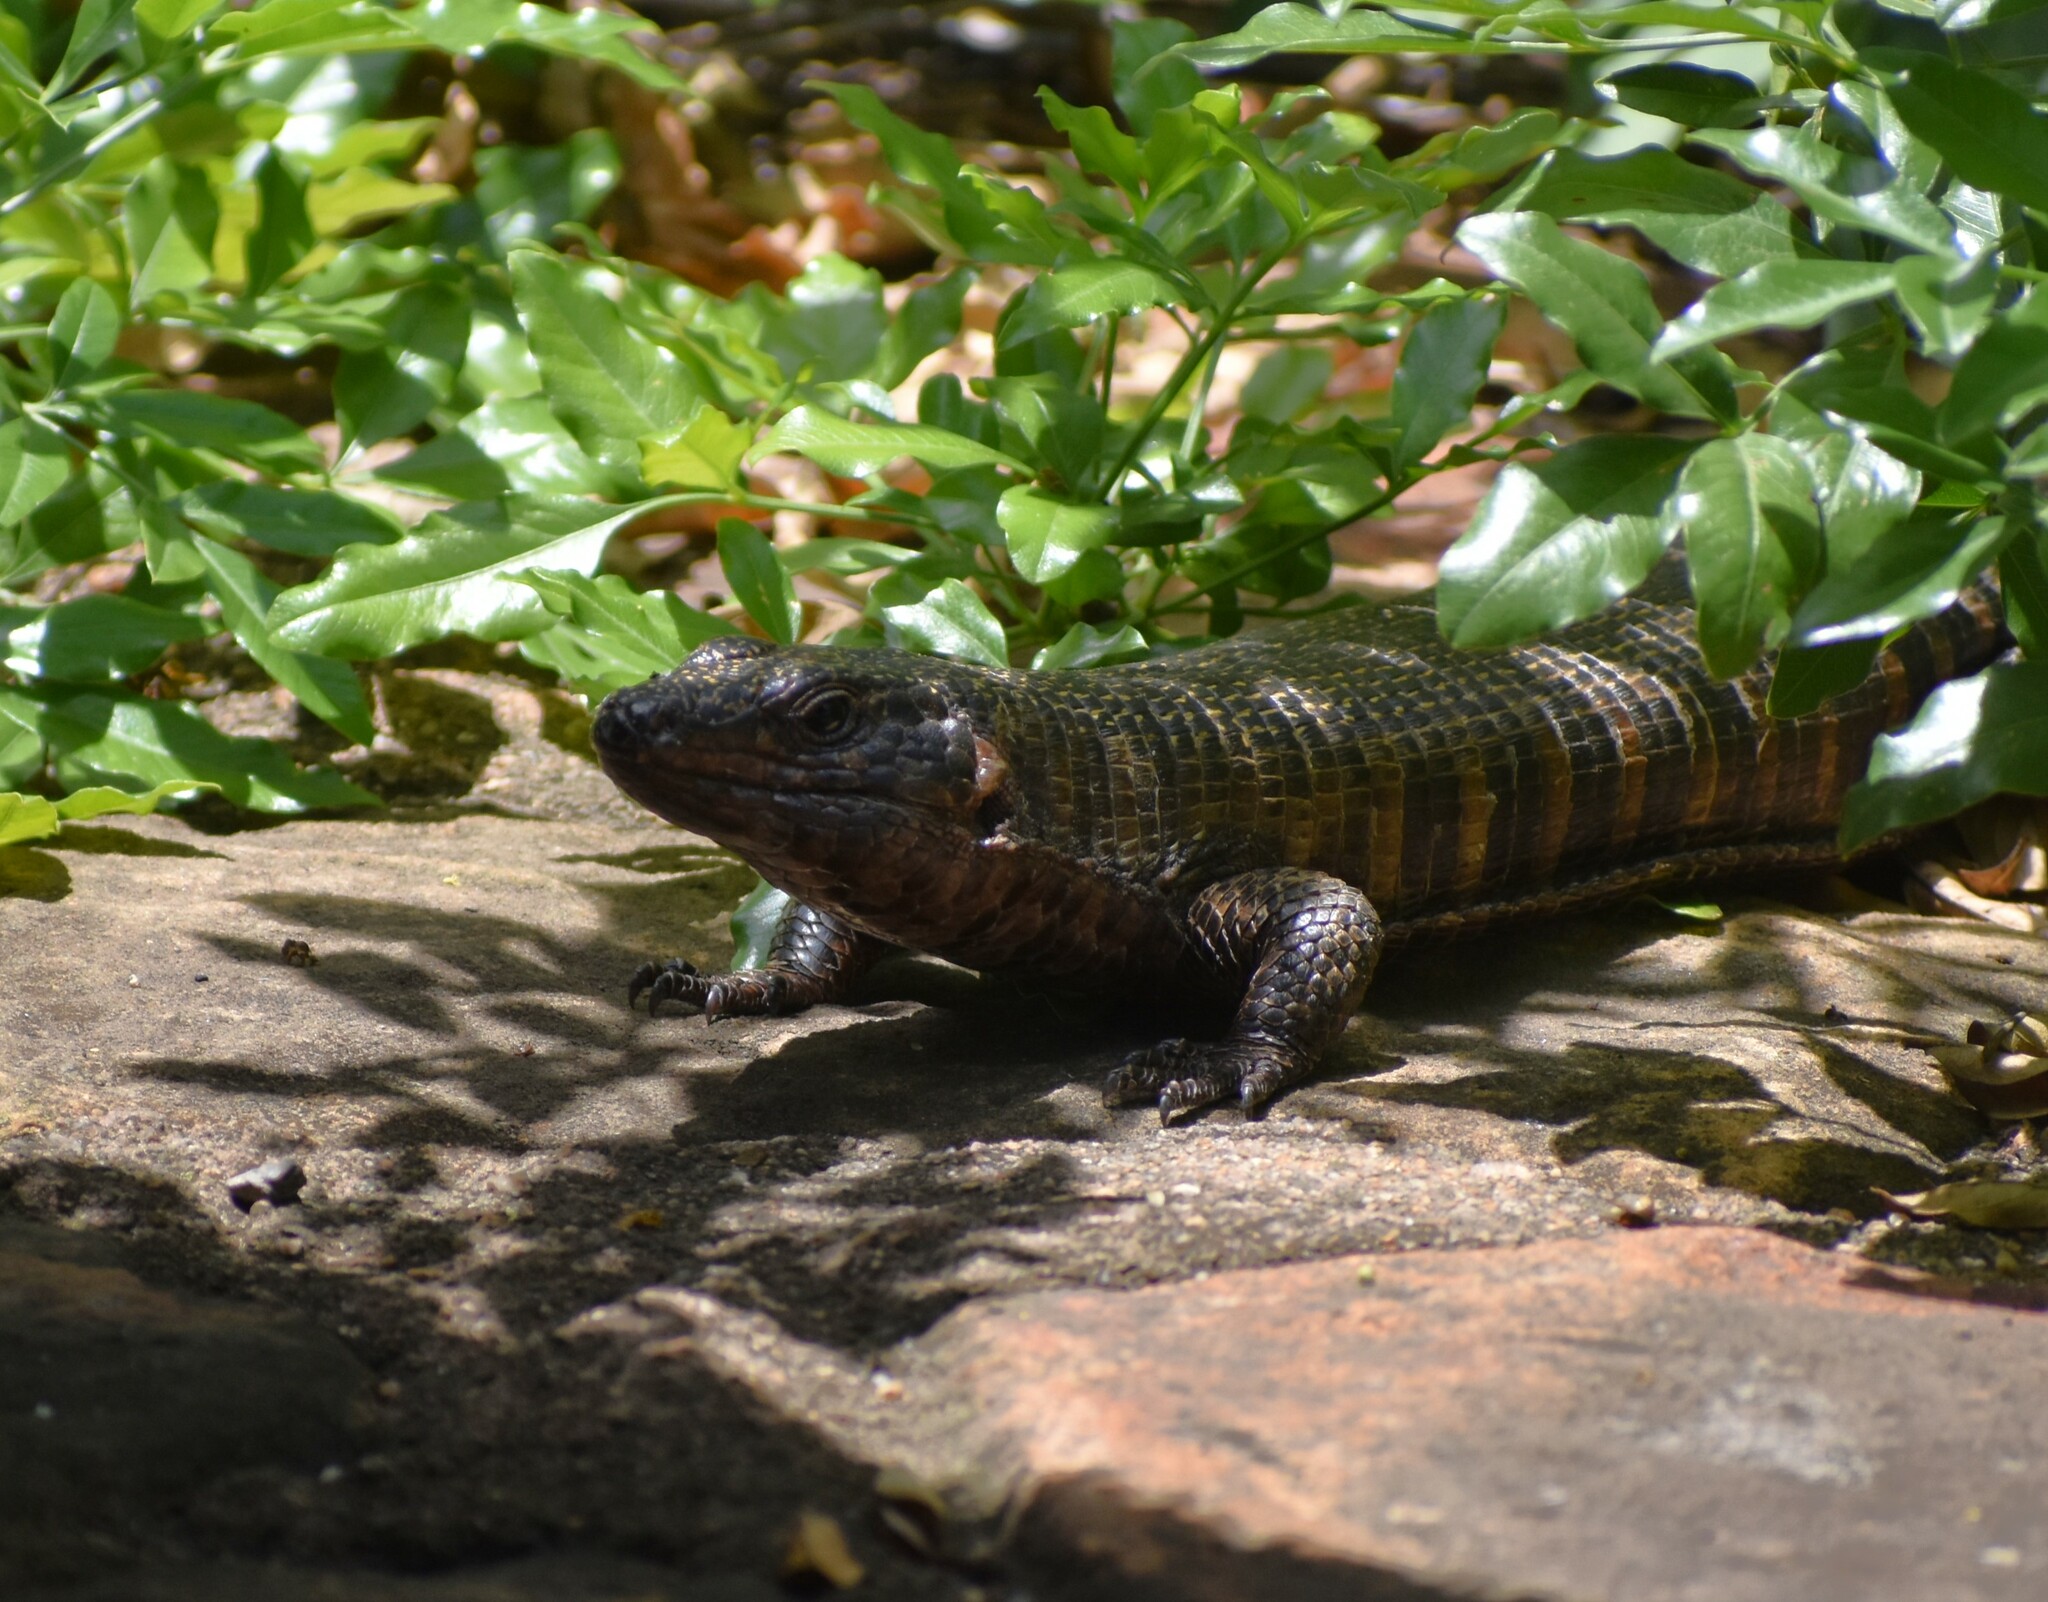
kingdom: Animalia
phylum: Chordata
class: Squamata
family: Gerrhosauridae
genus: Matobosaurus
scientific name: Matobosaurus validus
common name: Common giant plated lizard
